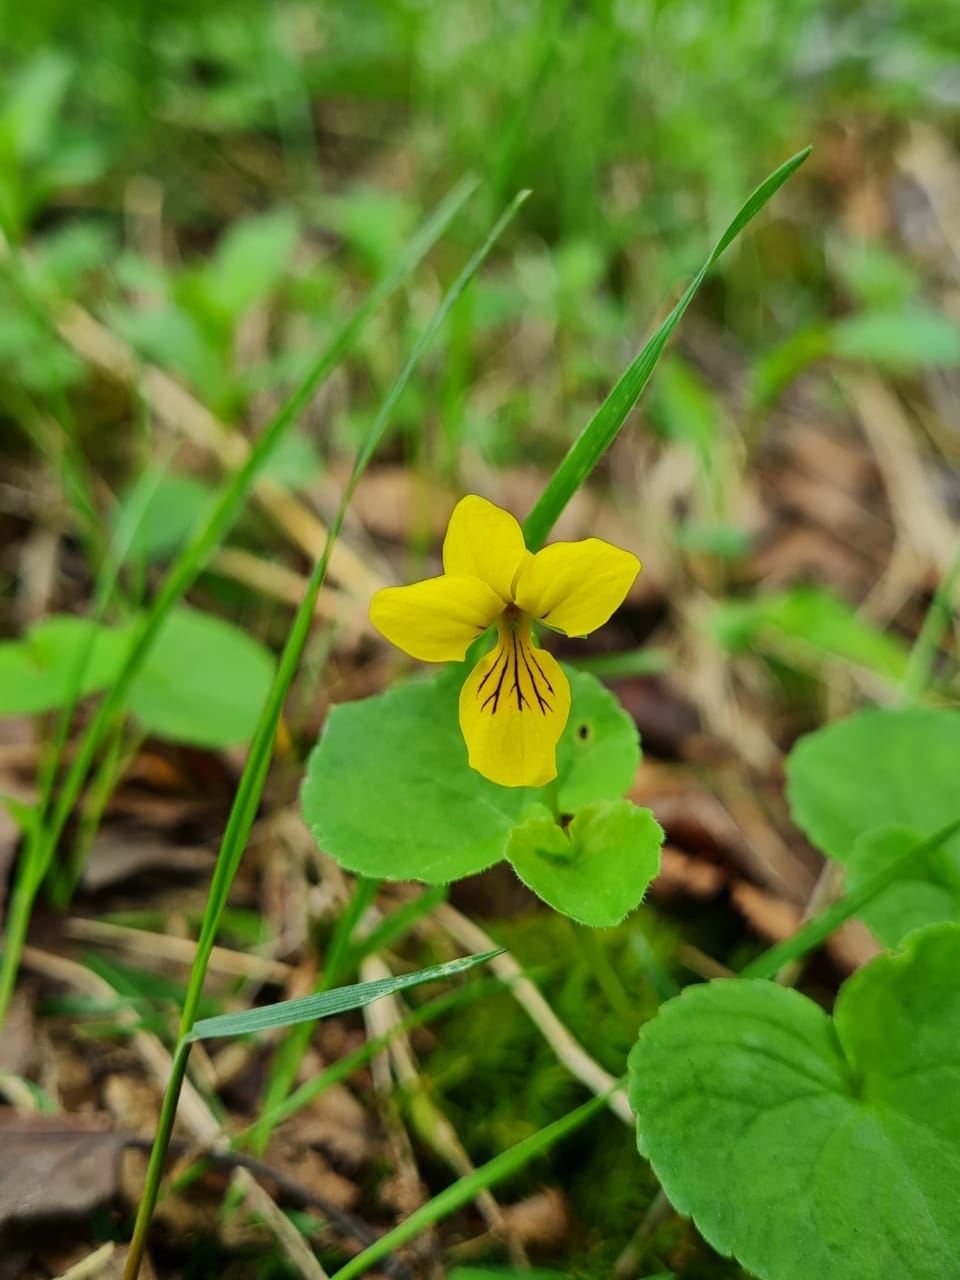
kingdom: Plantae
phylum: Tracheophyta
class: Magnoliopsida
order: Malpighiales
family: Violaceae
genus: Viola
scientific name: Viola biflora
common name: Alpine yellow violet
